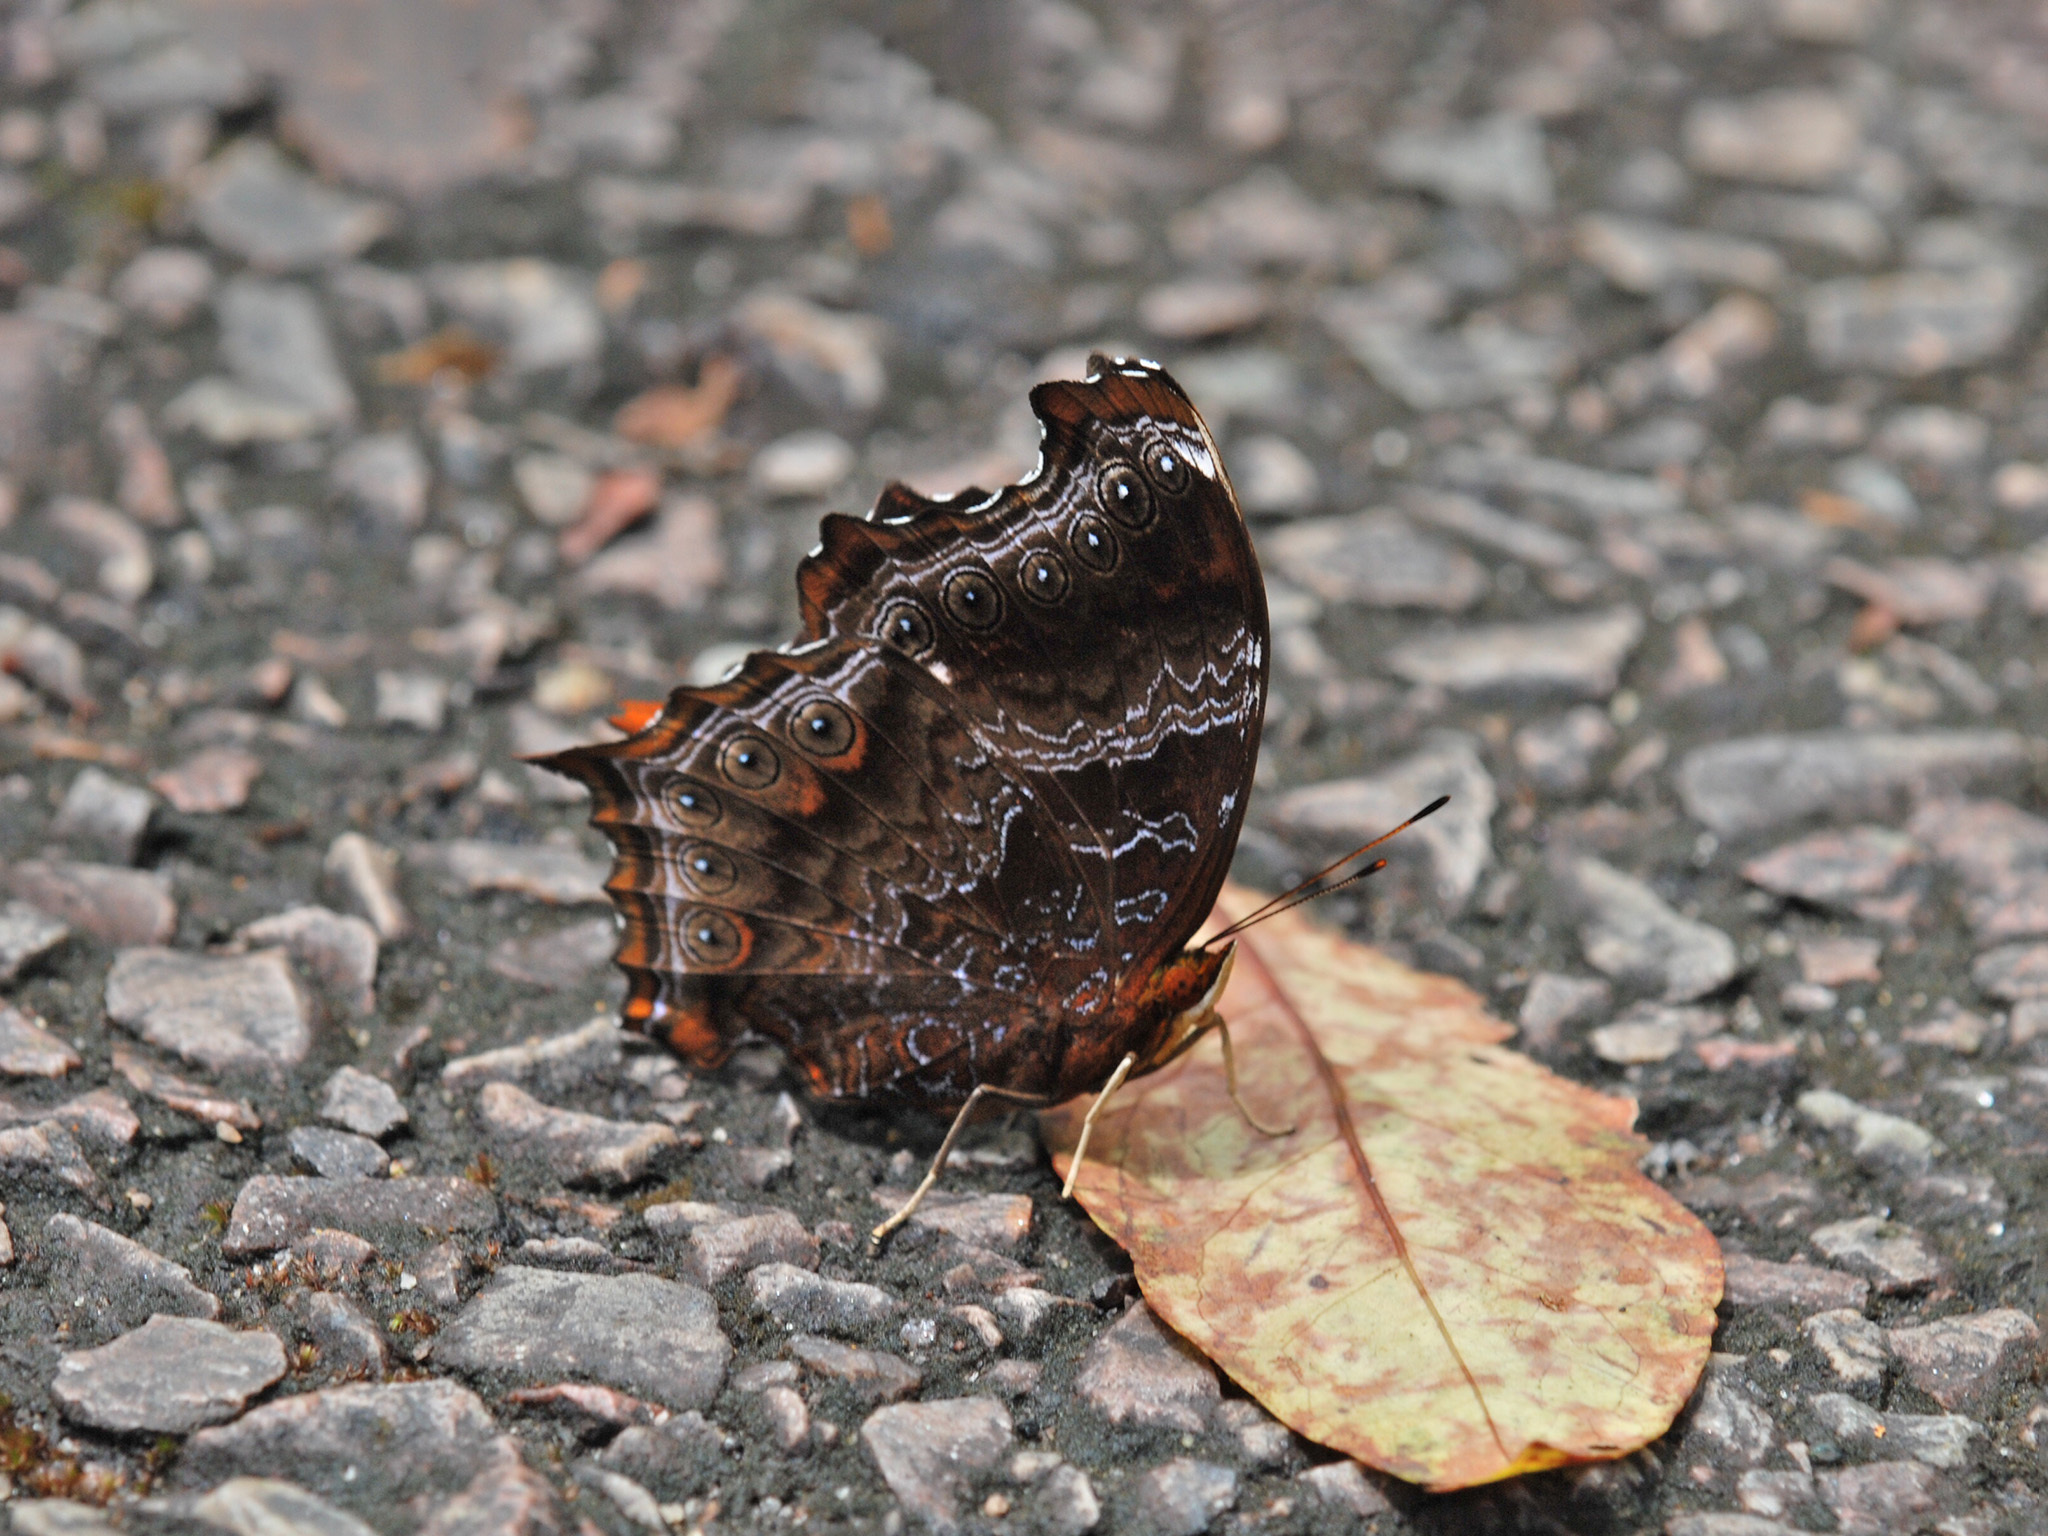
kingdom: Animalia
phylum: Arthropoda
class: Insecta
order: Lepidoptera
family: Nymphalidae
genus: Rhinopalpa
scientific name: Rhinopalpa polynice
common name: Wizard
